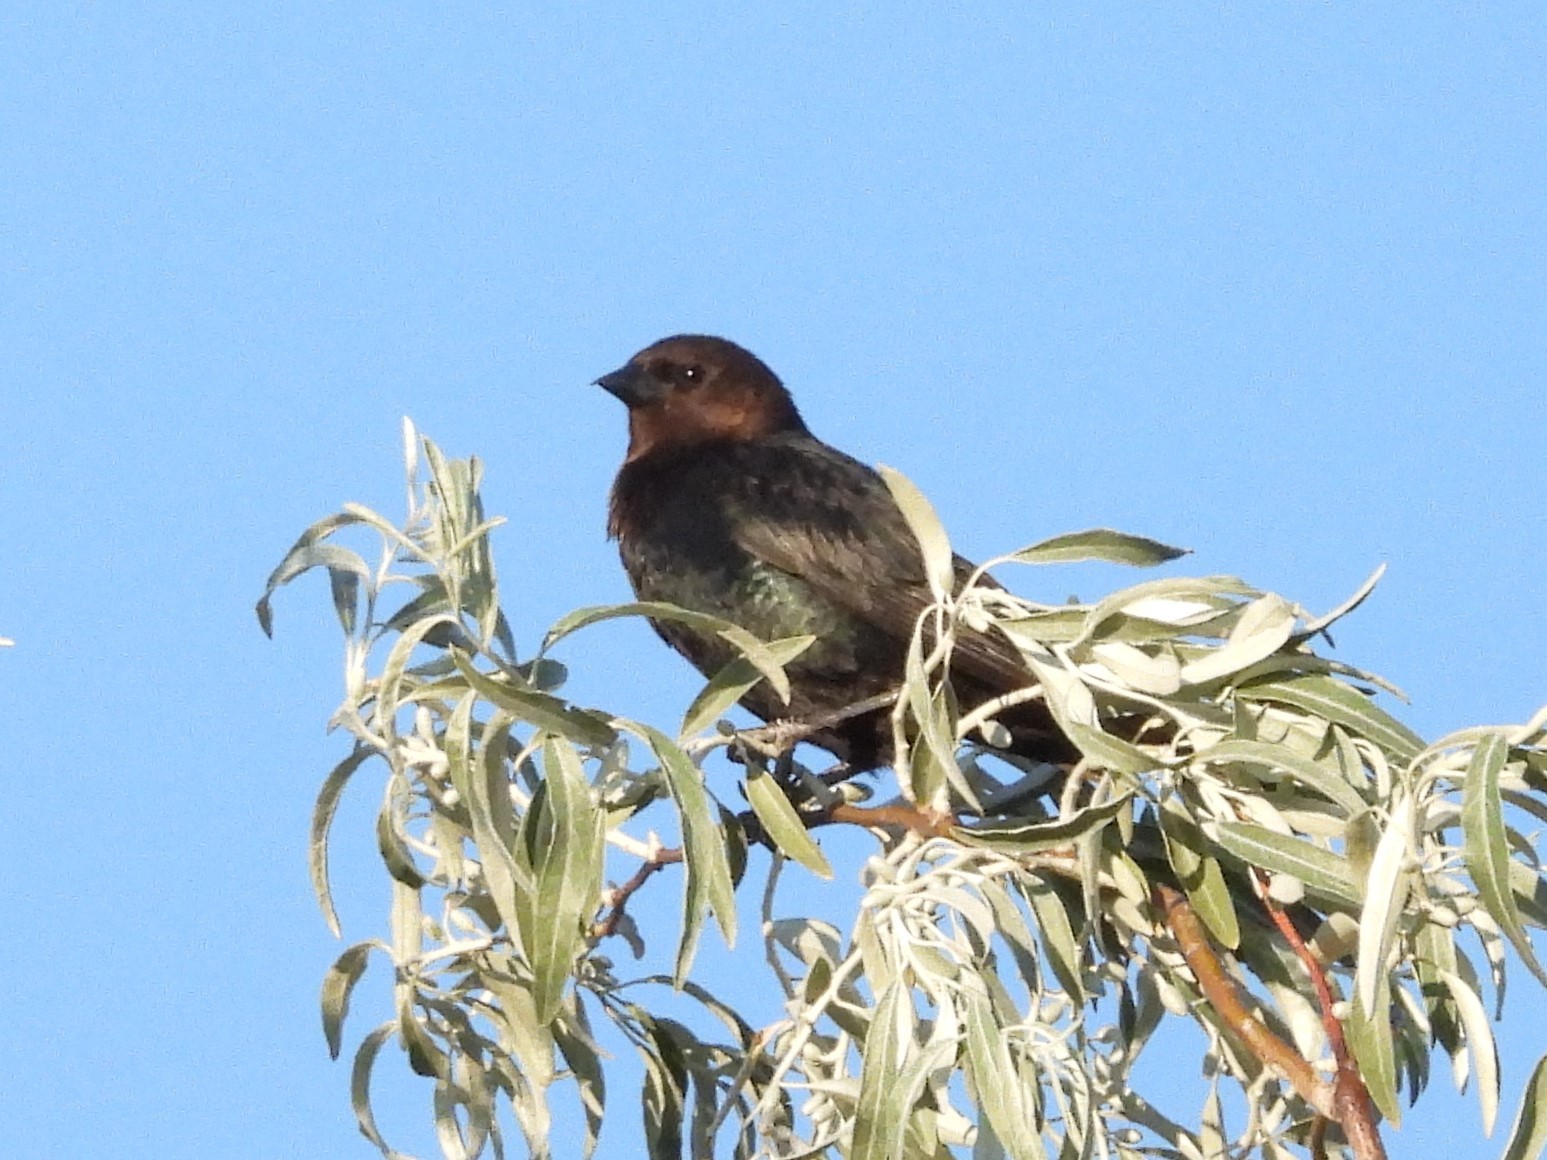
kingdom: Animalia
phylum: Chordata
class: Aves
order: Passeriformes
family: Icteridae
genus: Molothrus
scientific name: Molothrus ater
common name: Brown-headed cowbird
